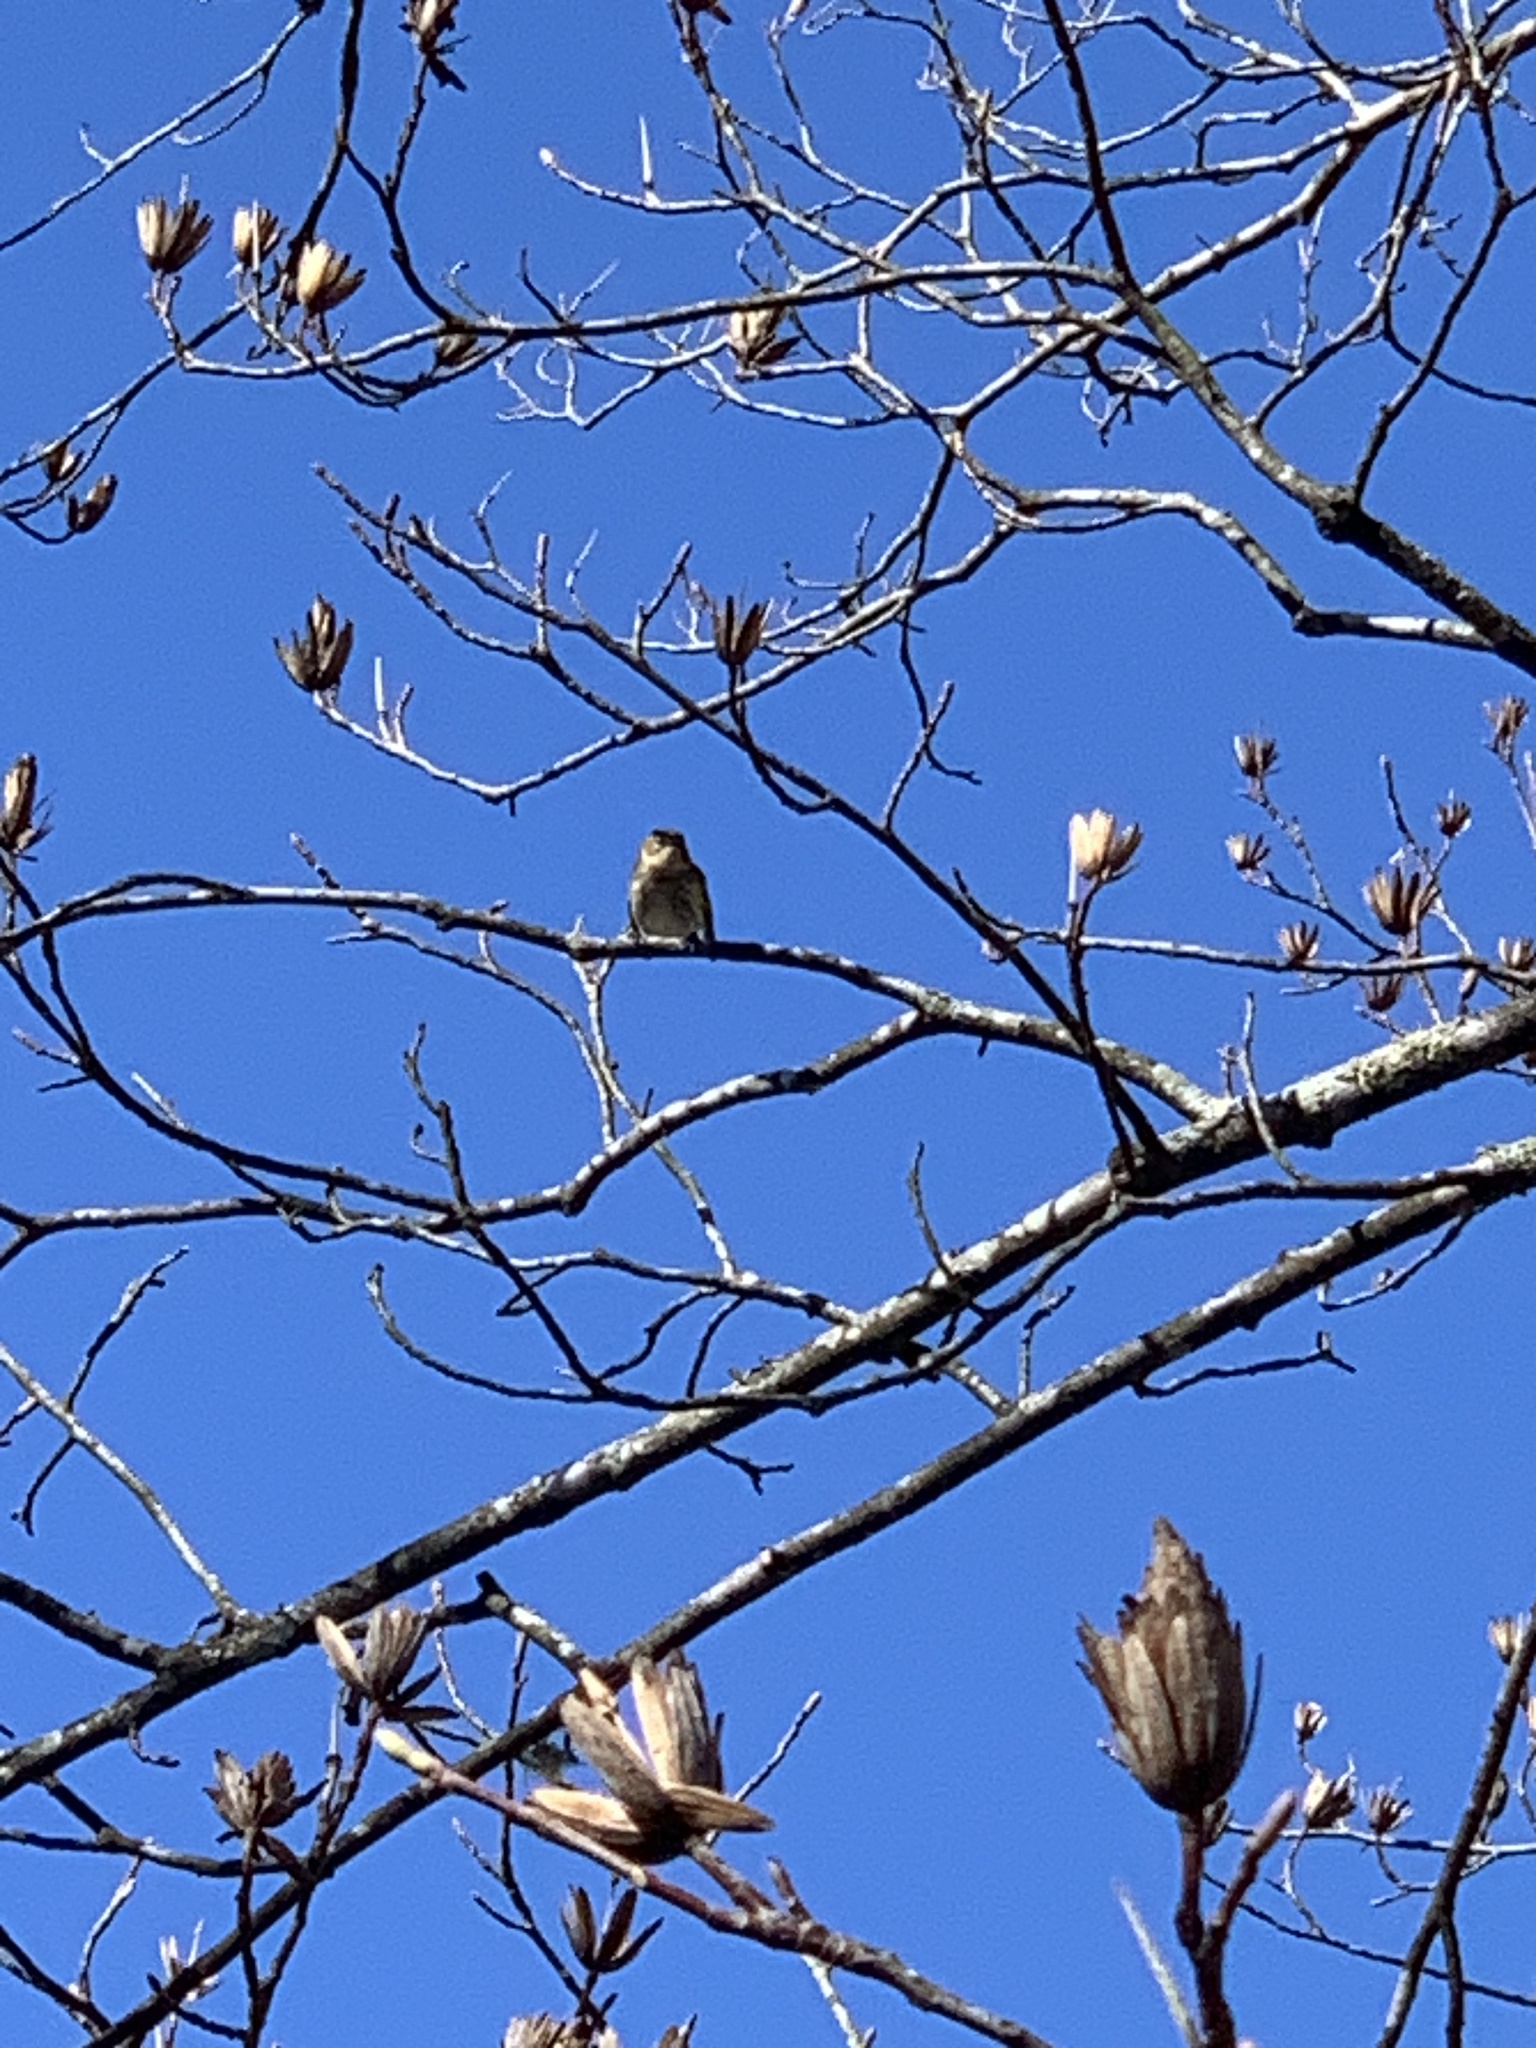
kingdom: Animalia
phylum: Chordata
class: Aves
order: Passeriformes
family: Parulidae
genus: Setophaga
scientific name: Setophaga coronata
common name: Myrtle warbler
